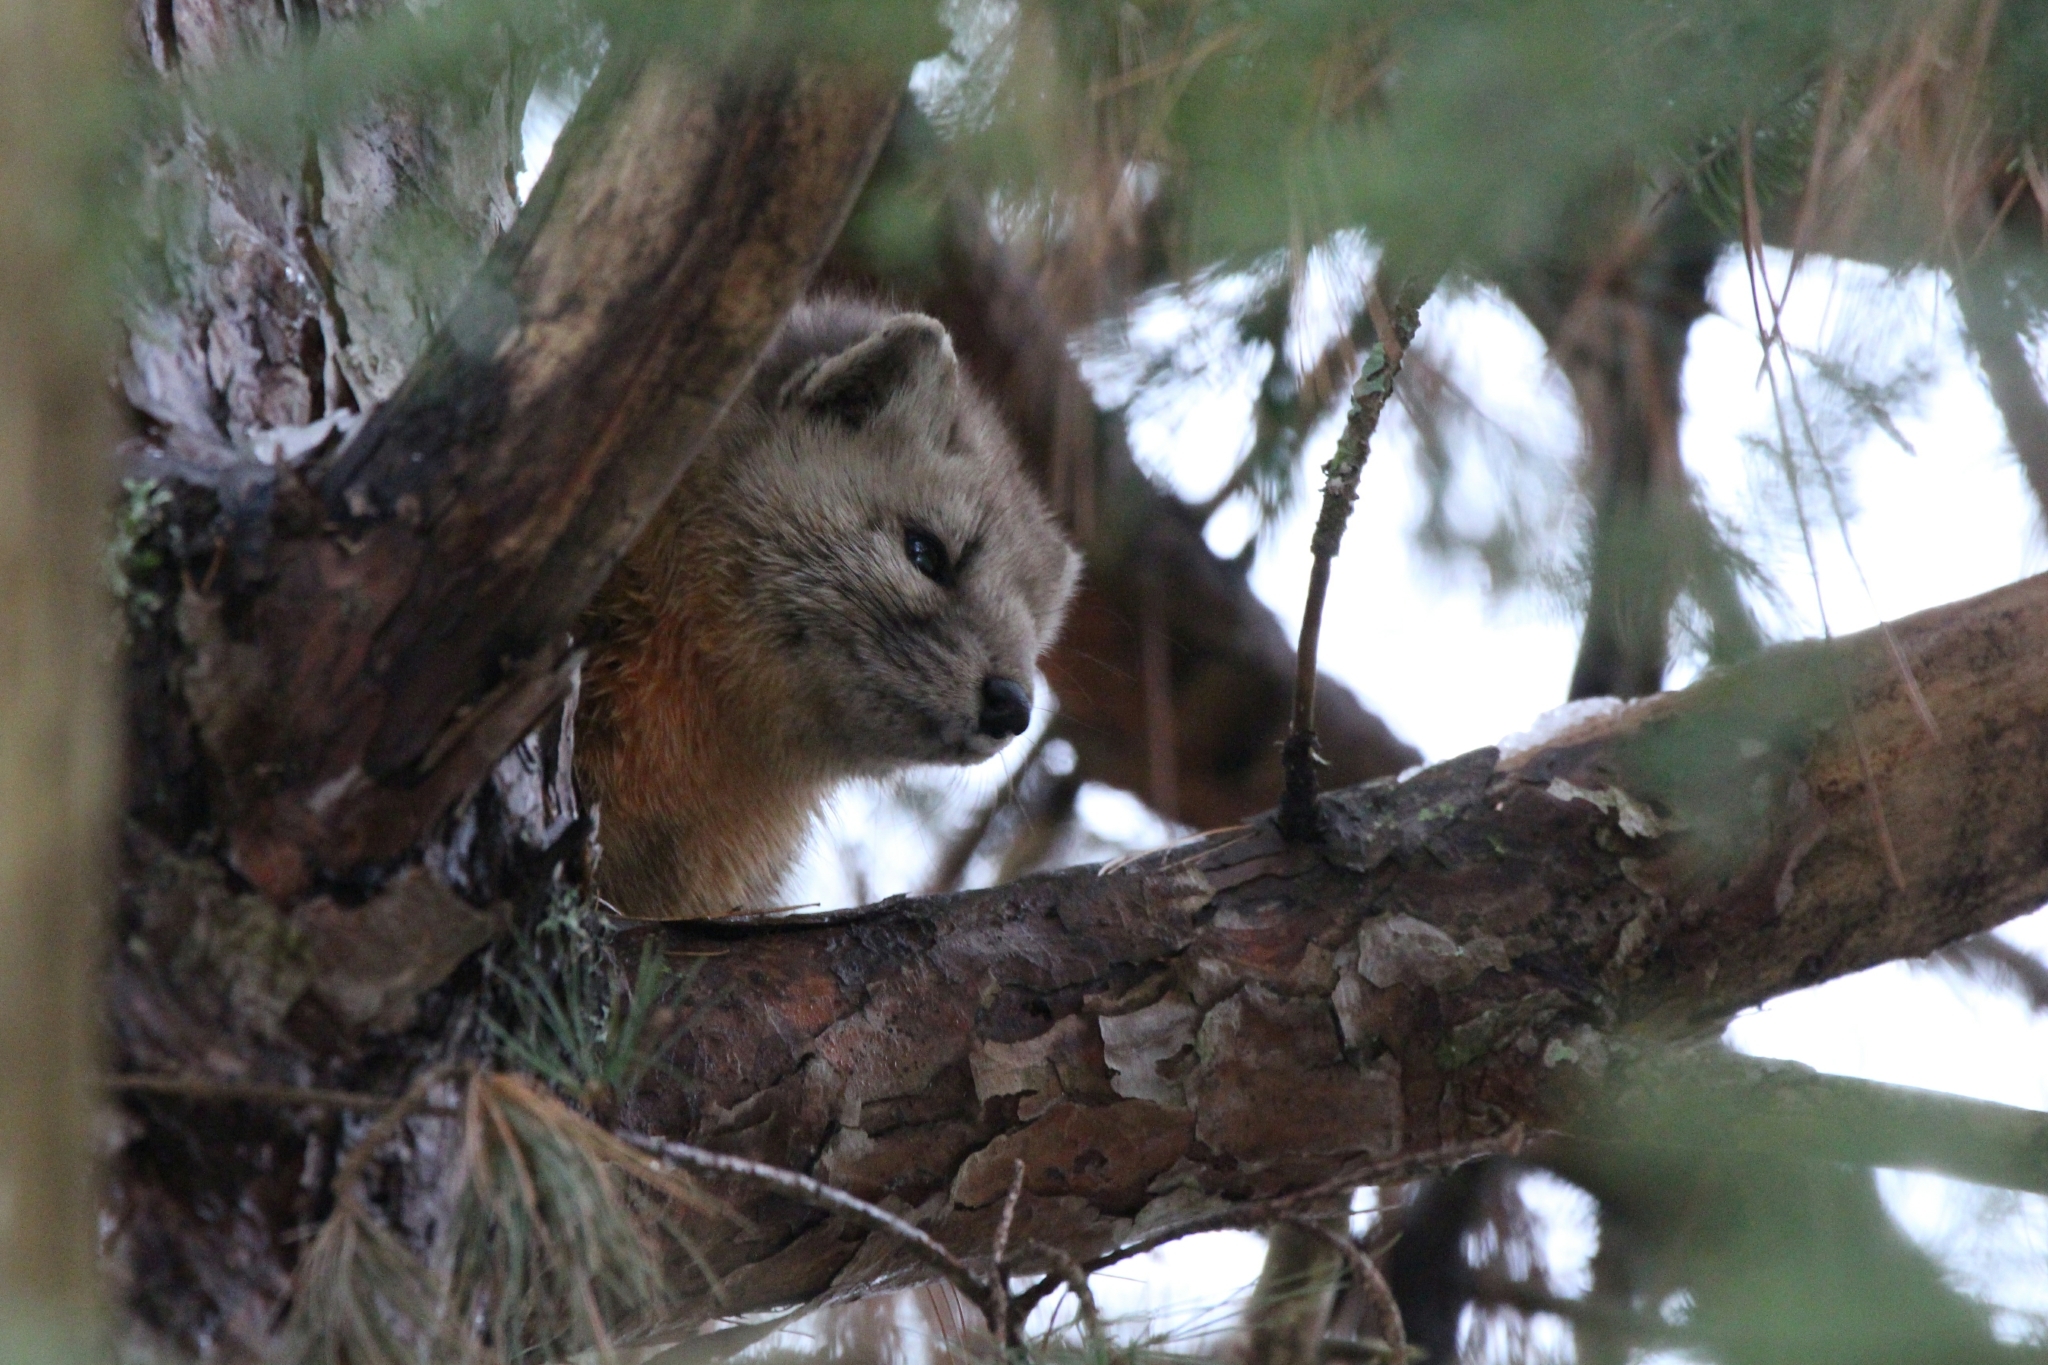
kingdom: Animalia
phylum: Chordata
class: Mammalia
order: Carnivora
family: Mustelidae
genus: Martes
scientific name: Martes americana
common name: American marten
